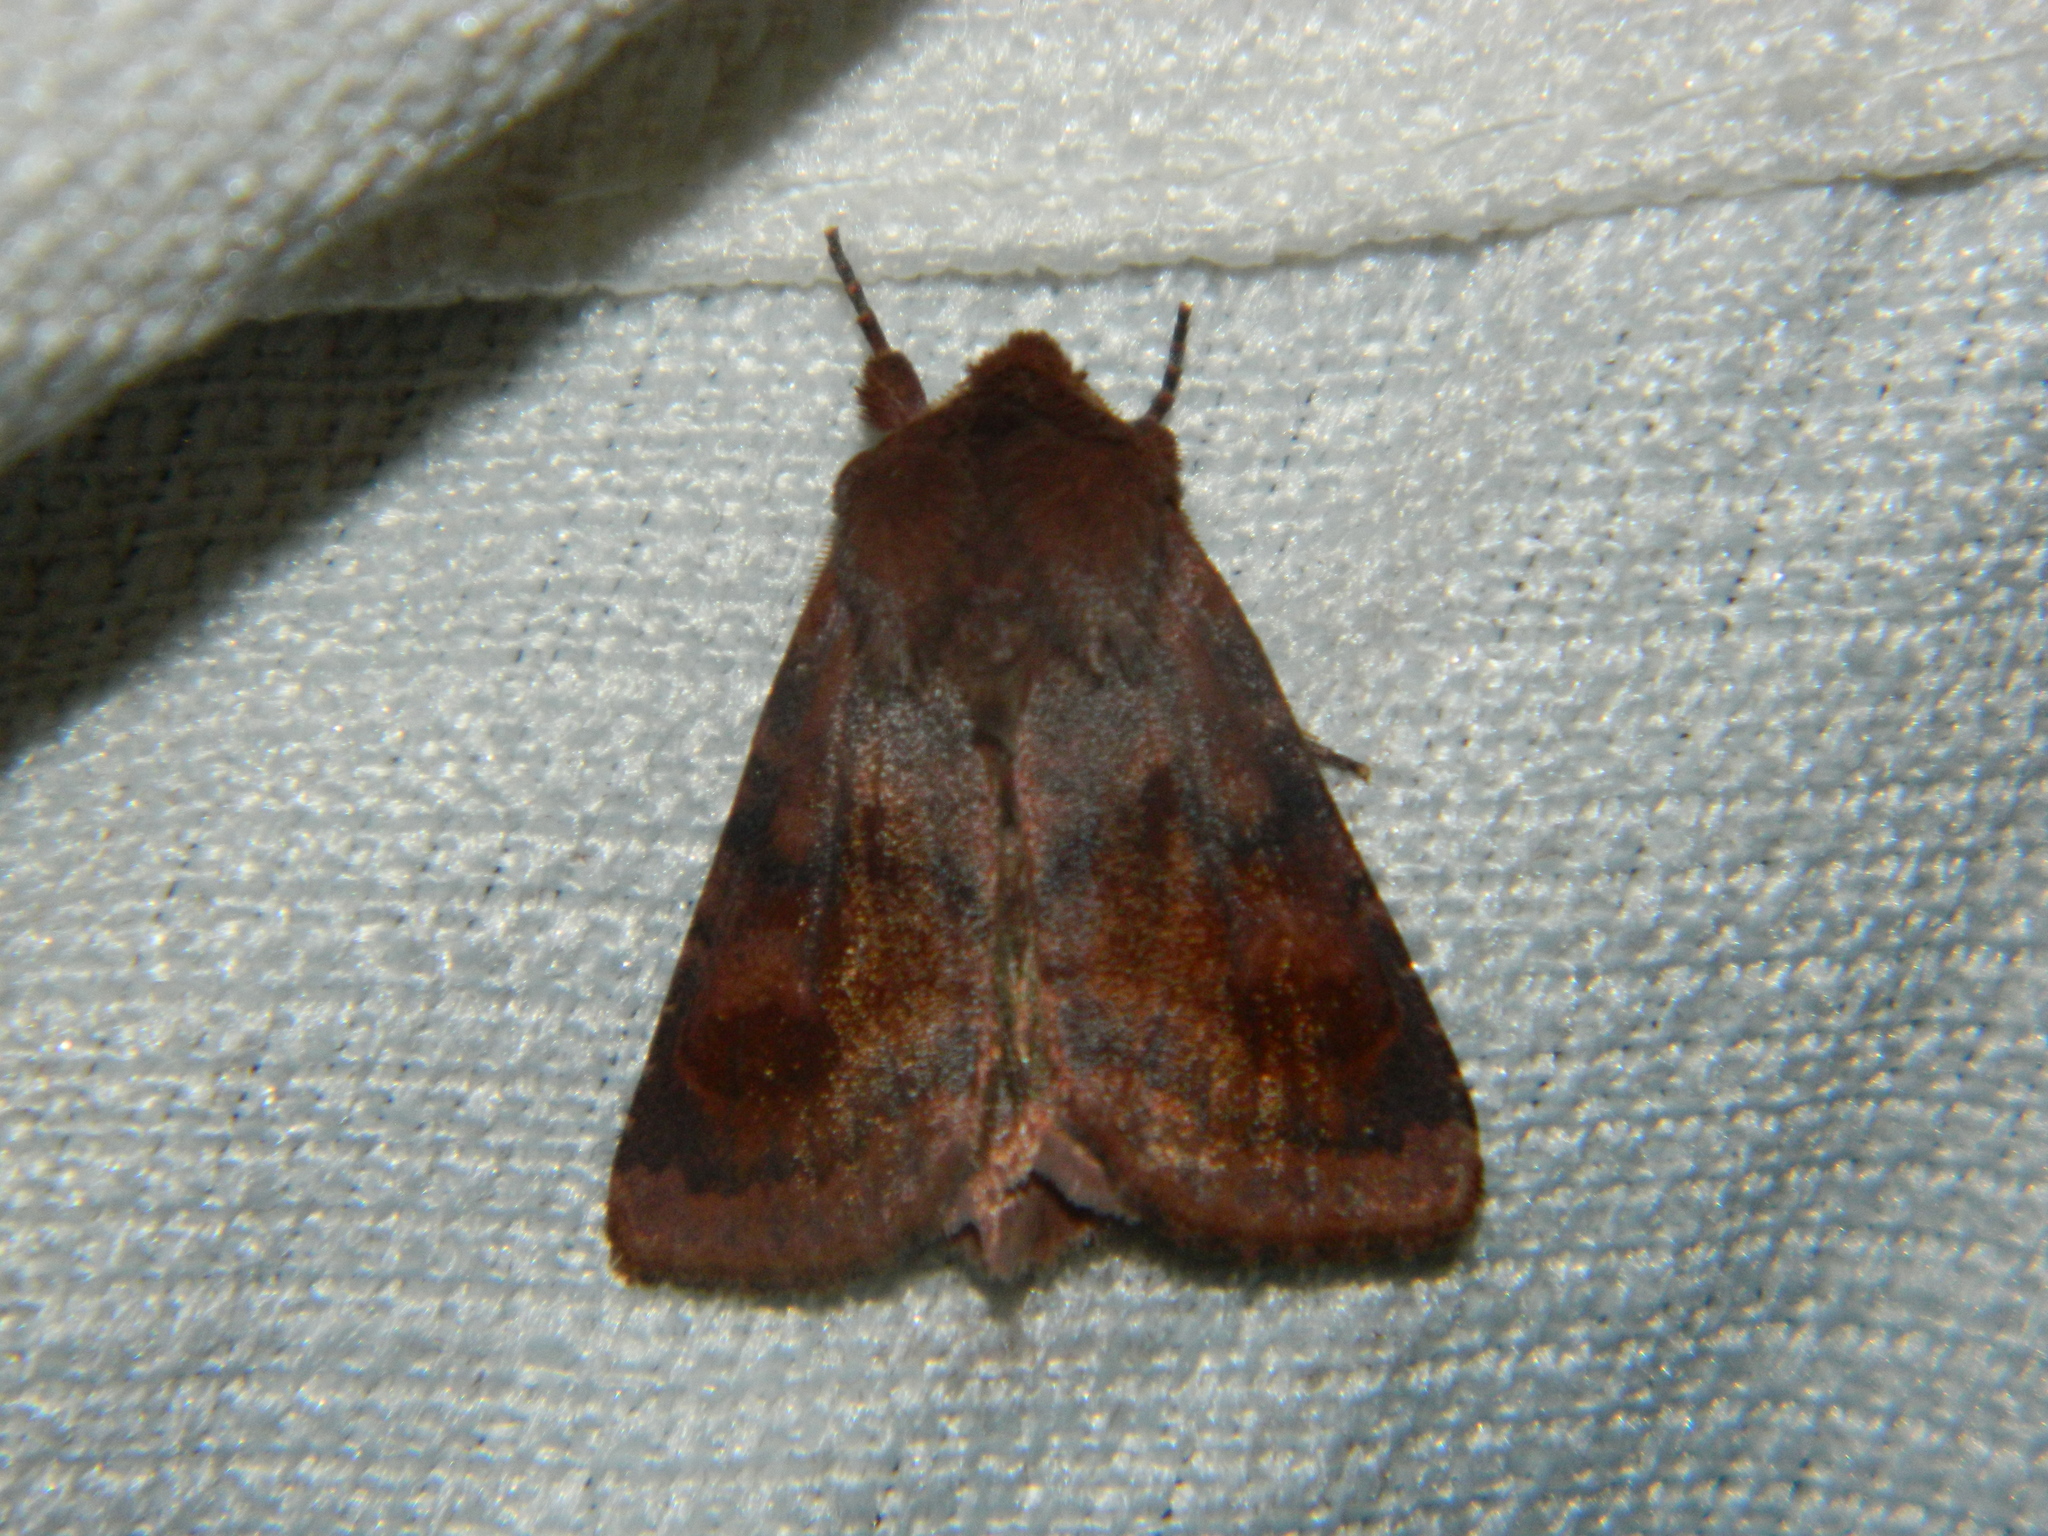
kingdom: Animalia
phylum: Arthropoda
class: Insecta
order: Lepidoptera
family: Noctuidae
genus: Nephelodes
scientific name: Nephelodes minians
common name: Bronzed cutworm
